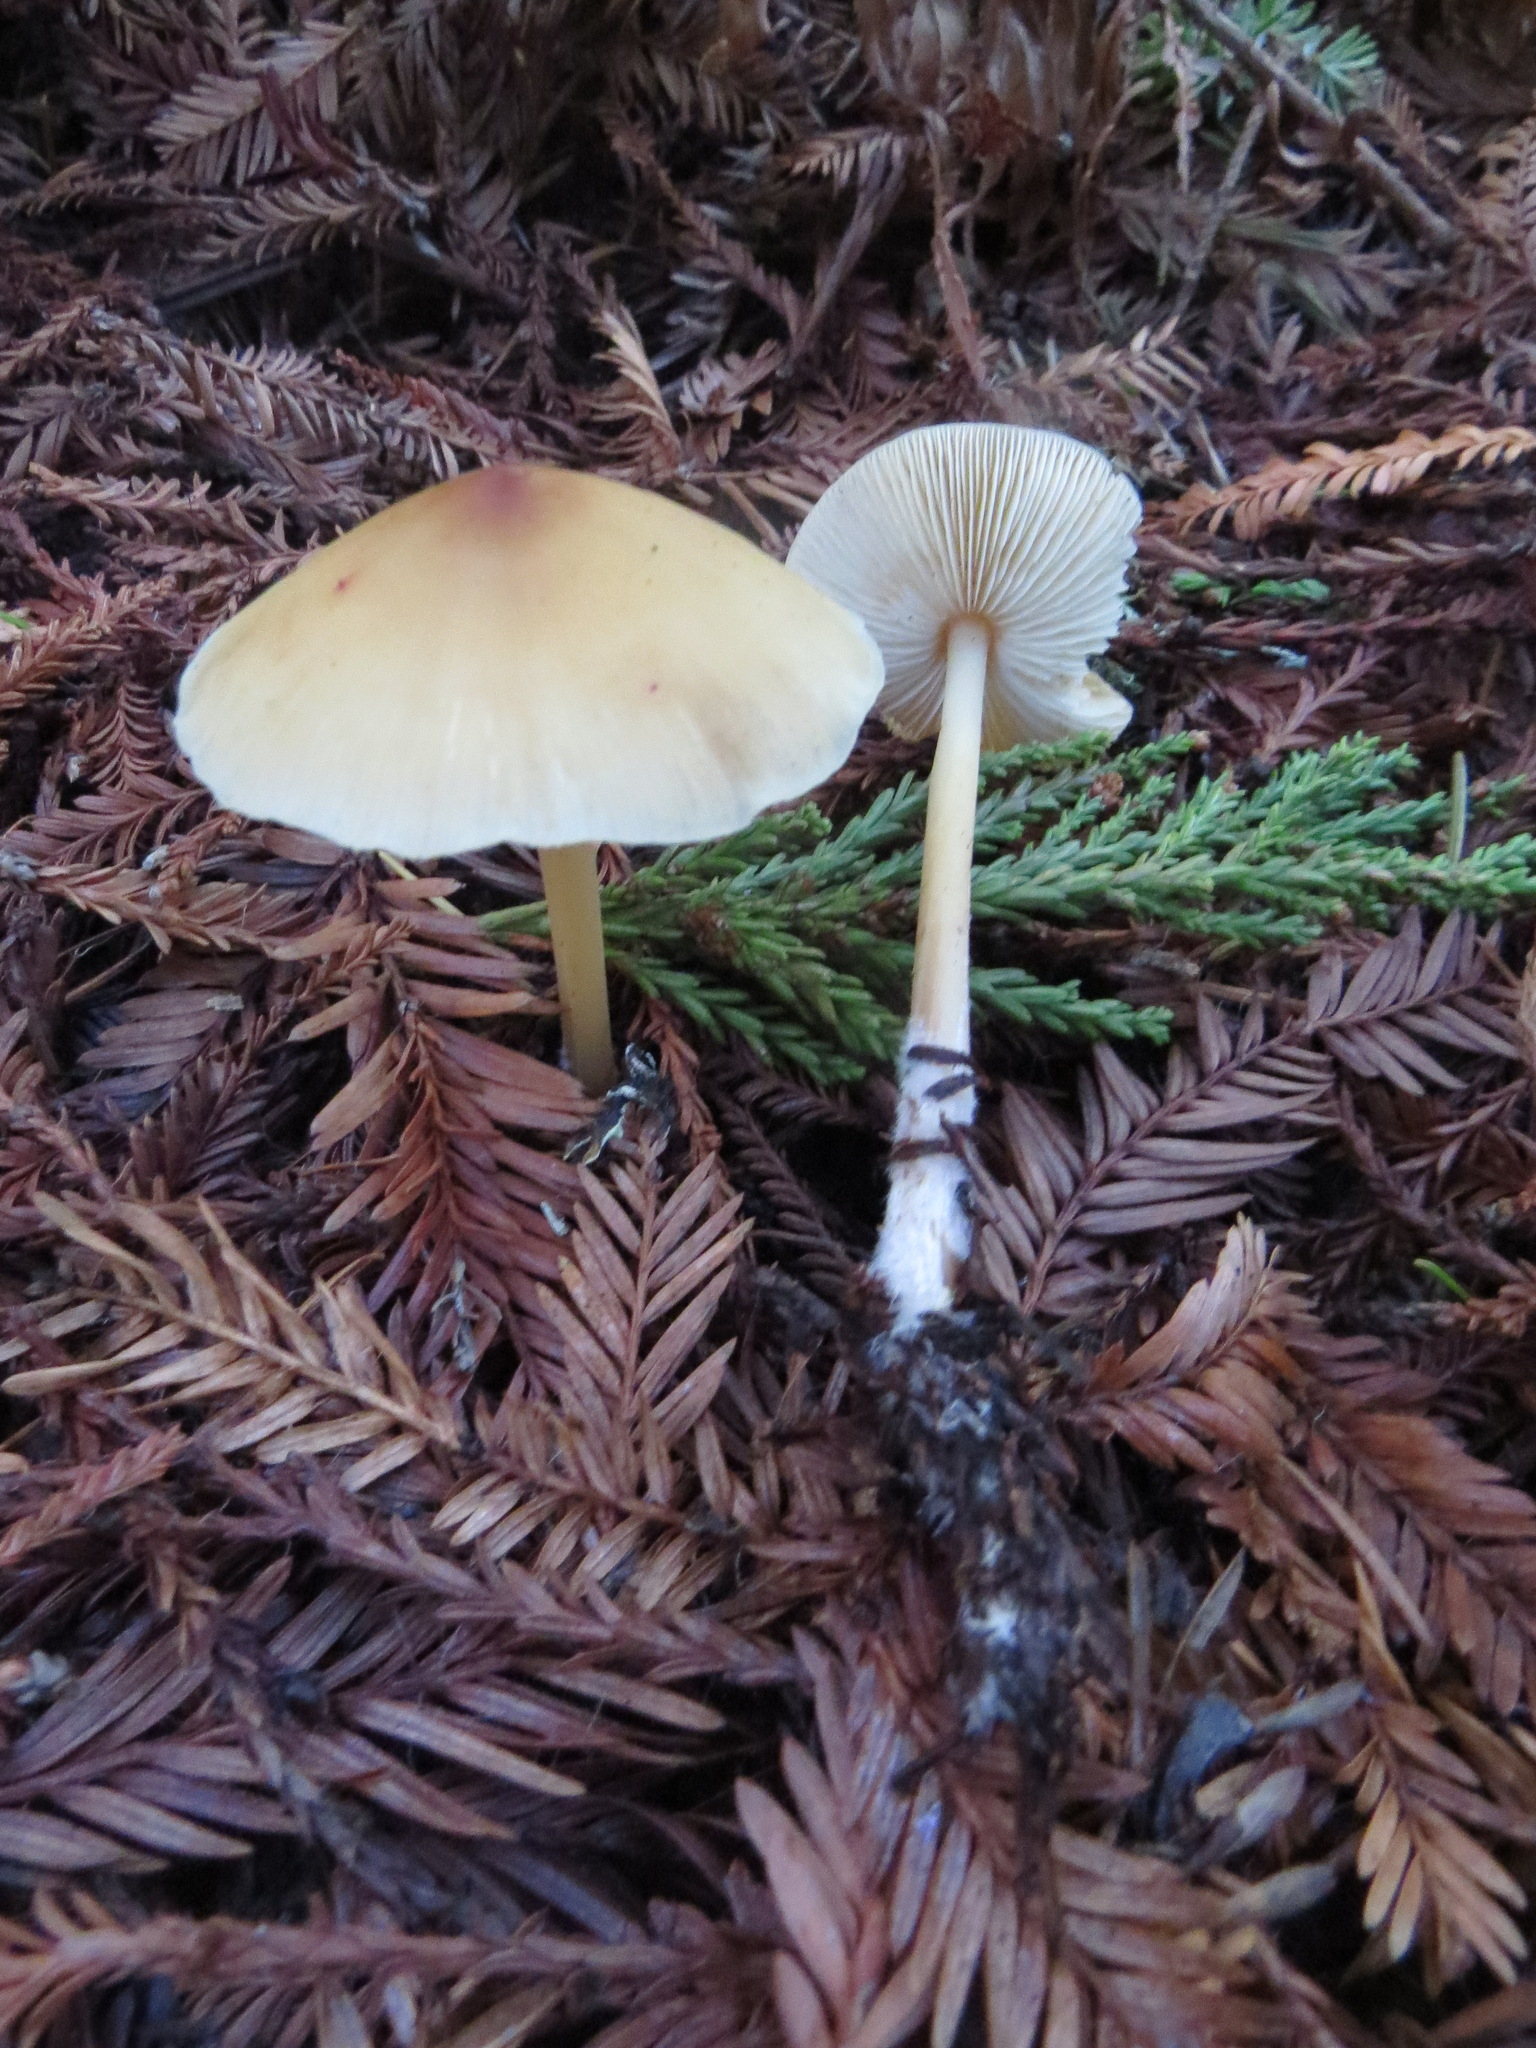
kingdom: Fungi
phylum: Basidiomycota
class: Agaricomycetes
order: Agaricales
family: Tricholomataceae
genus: Caulorhiza
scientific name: Caulorhiza umbonata
